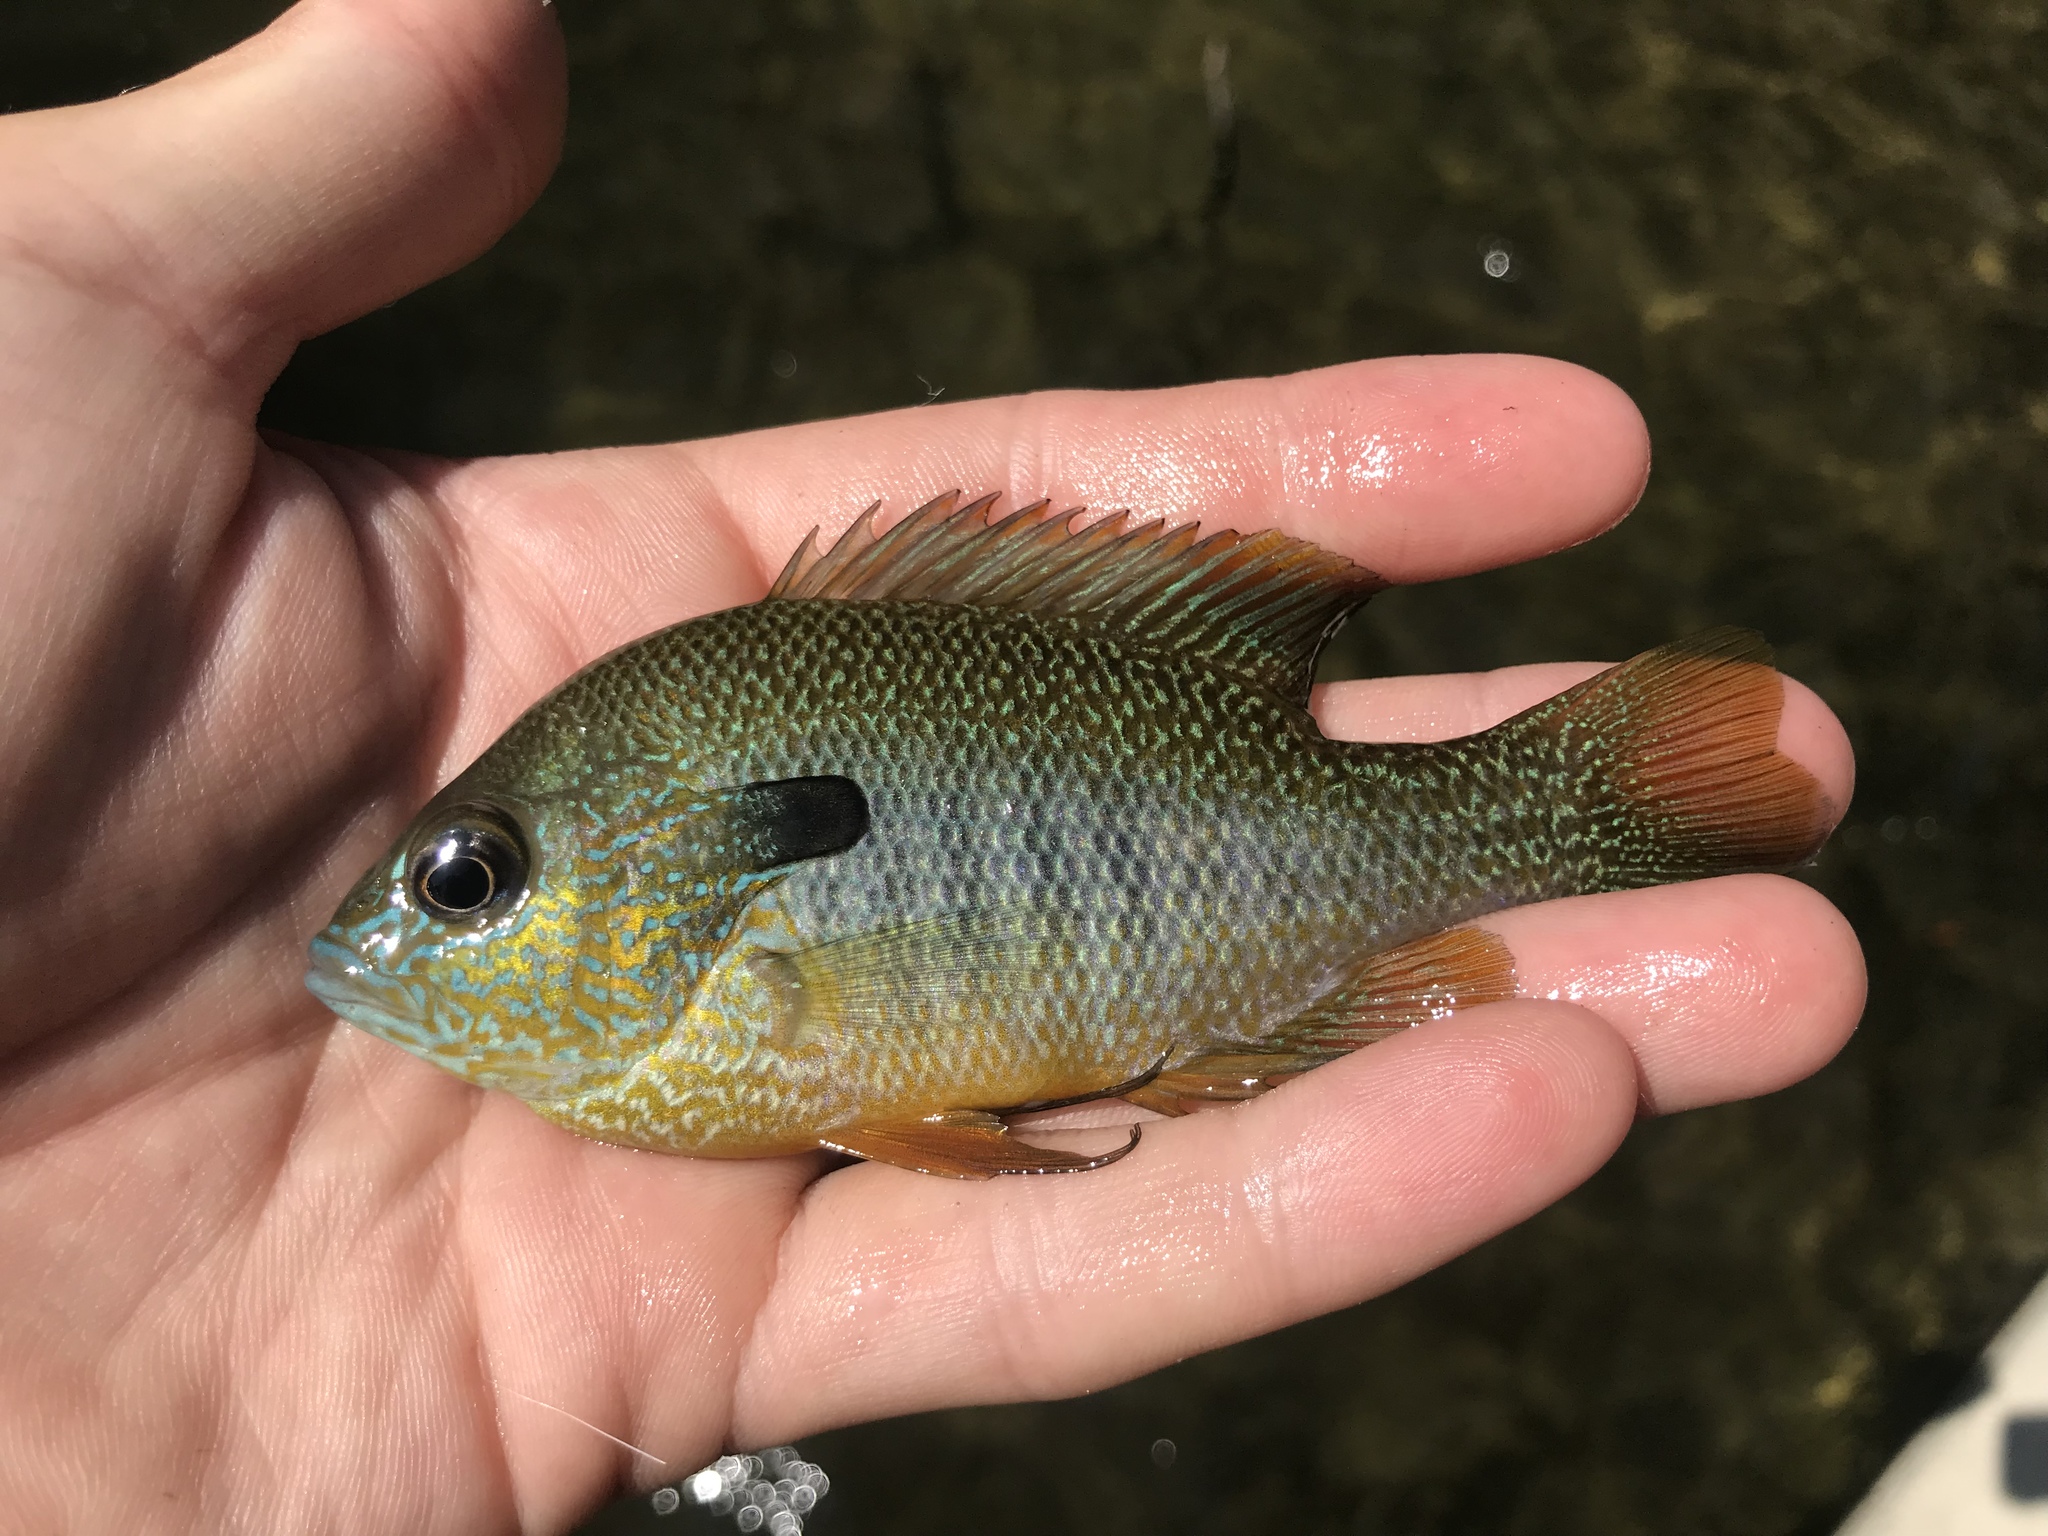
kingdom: Animalia
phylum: Chordata
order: Perciformes
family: Centrarchidae
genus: Lepomis
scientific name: Lepomis megalotis
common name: Longear sunfish
